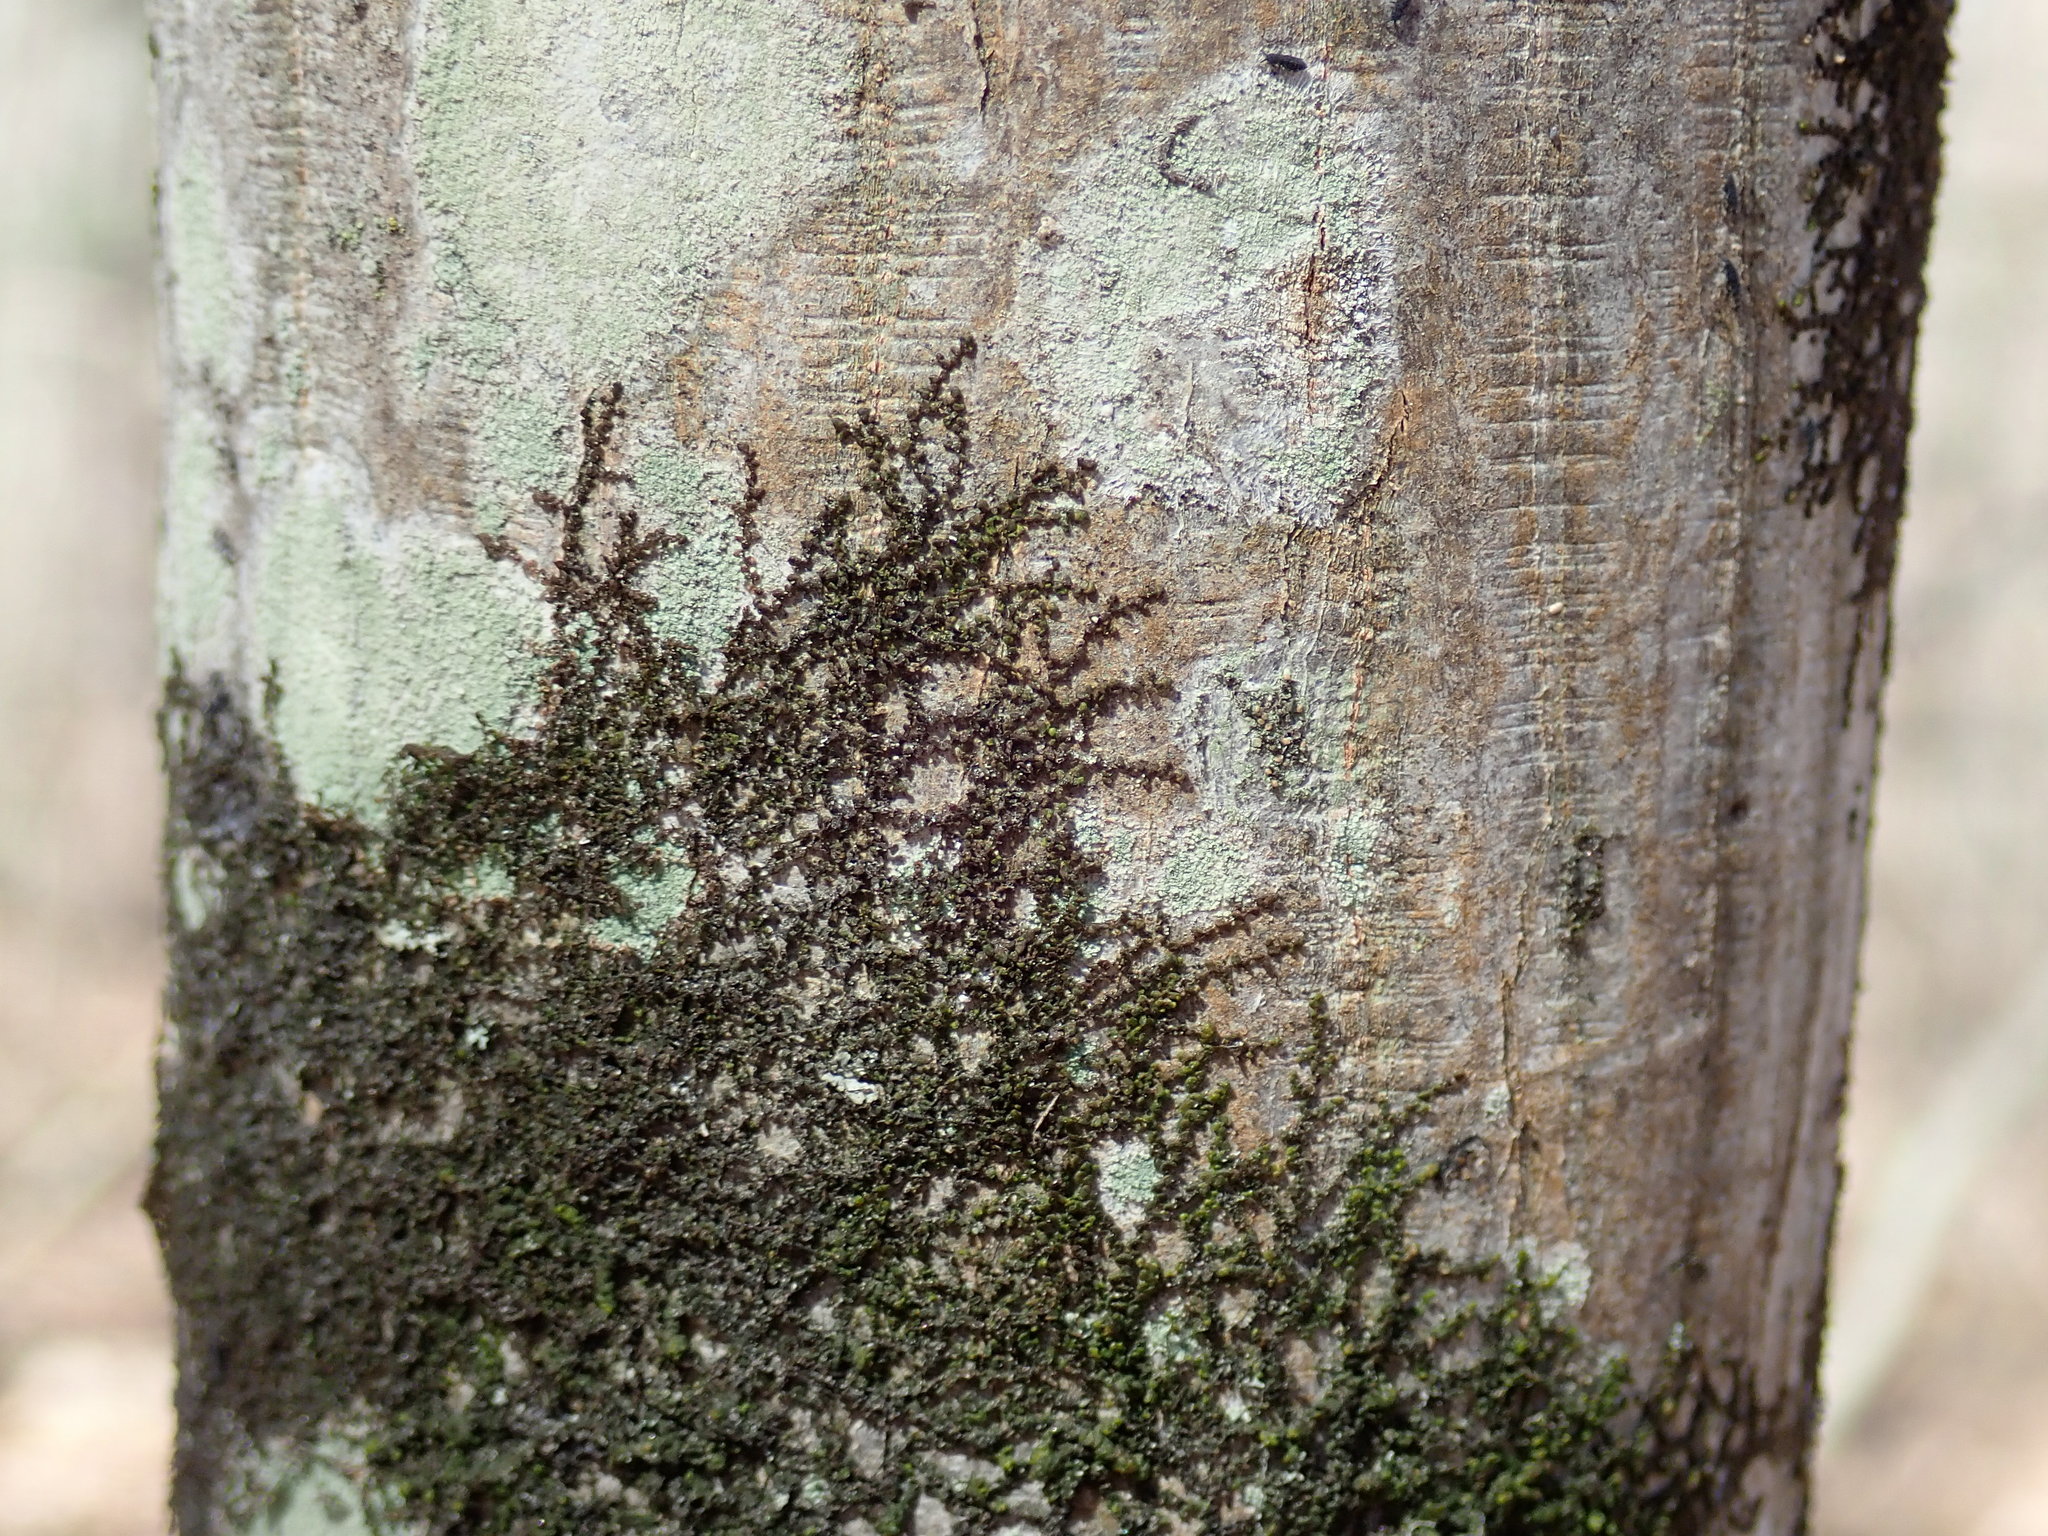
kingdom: Plantae
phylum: Marchantiophyta
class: Jungermanniopsida
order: Porellales
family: Frullaniaceae
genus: Frullania
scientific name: Frullania
